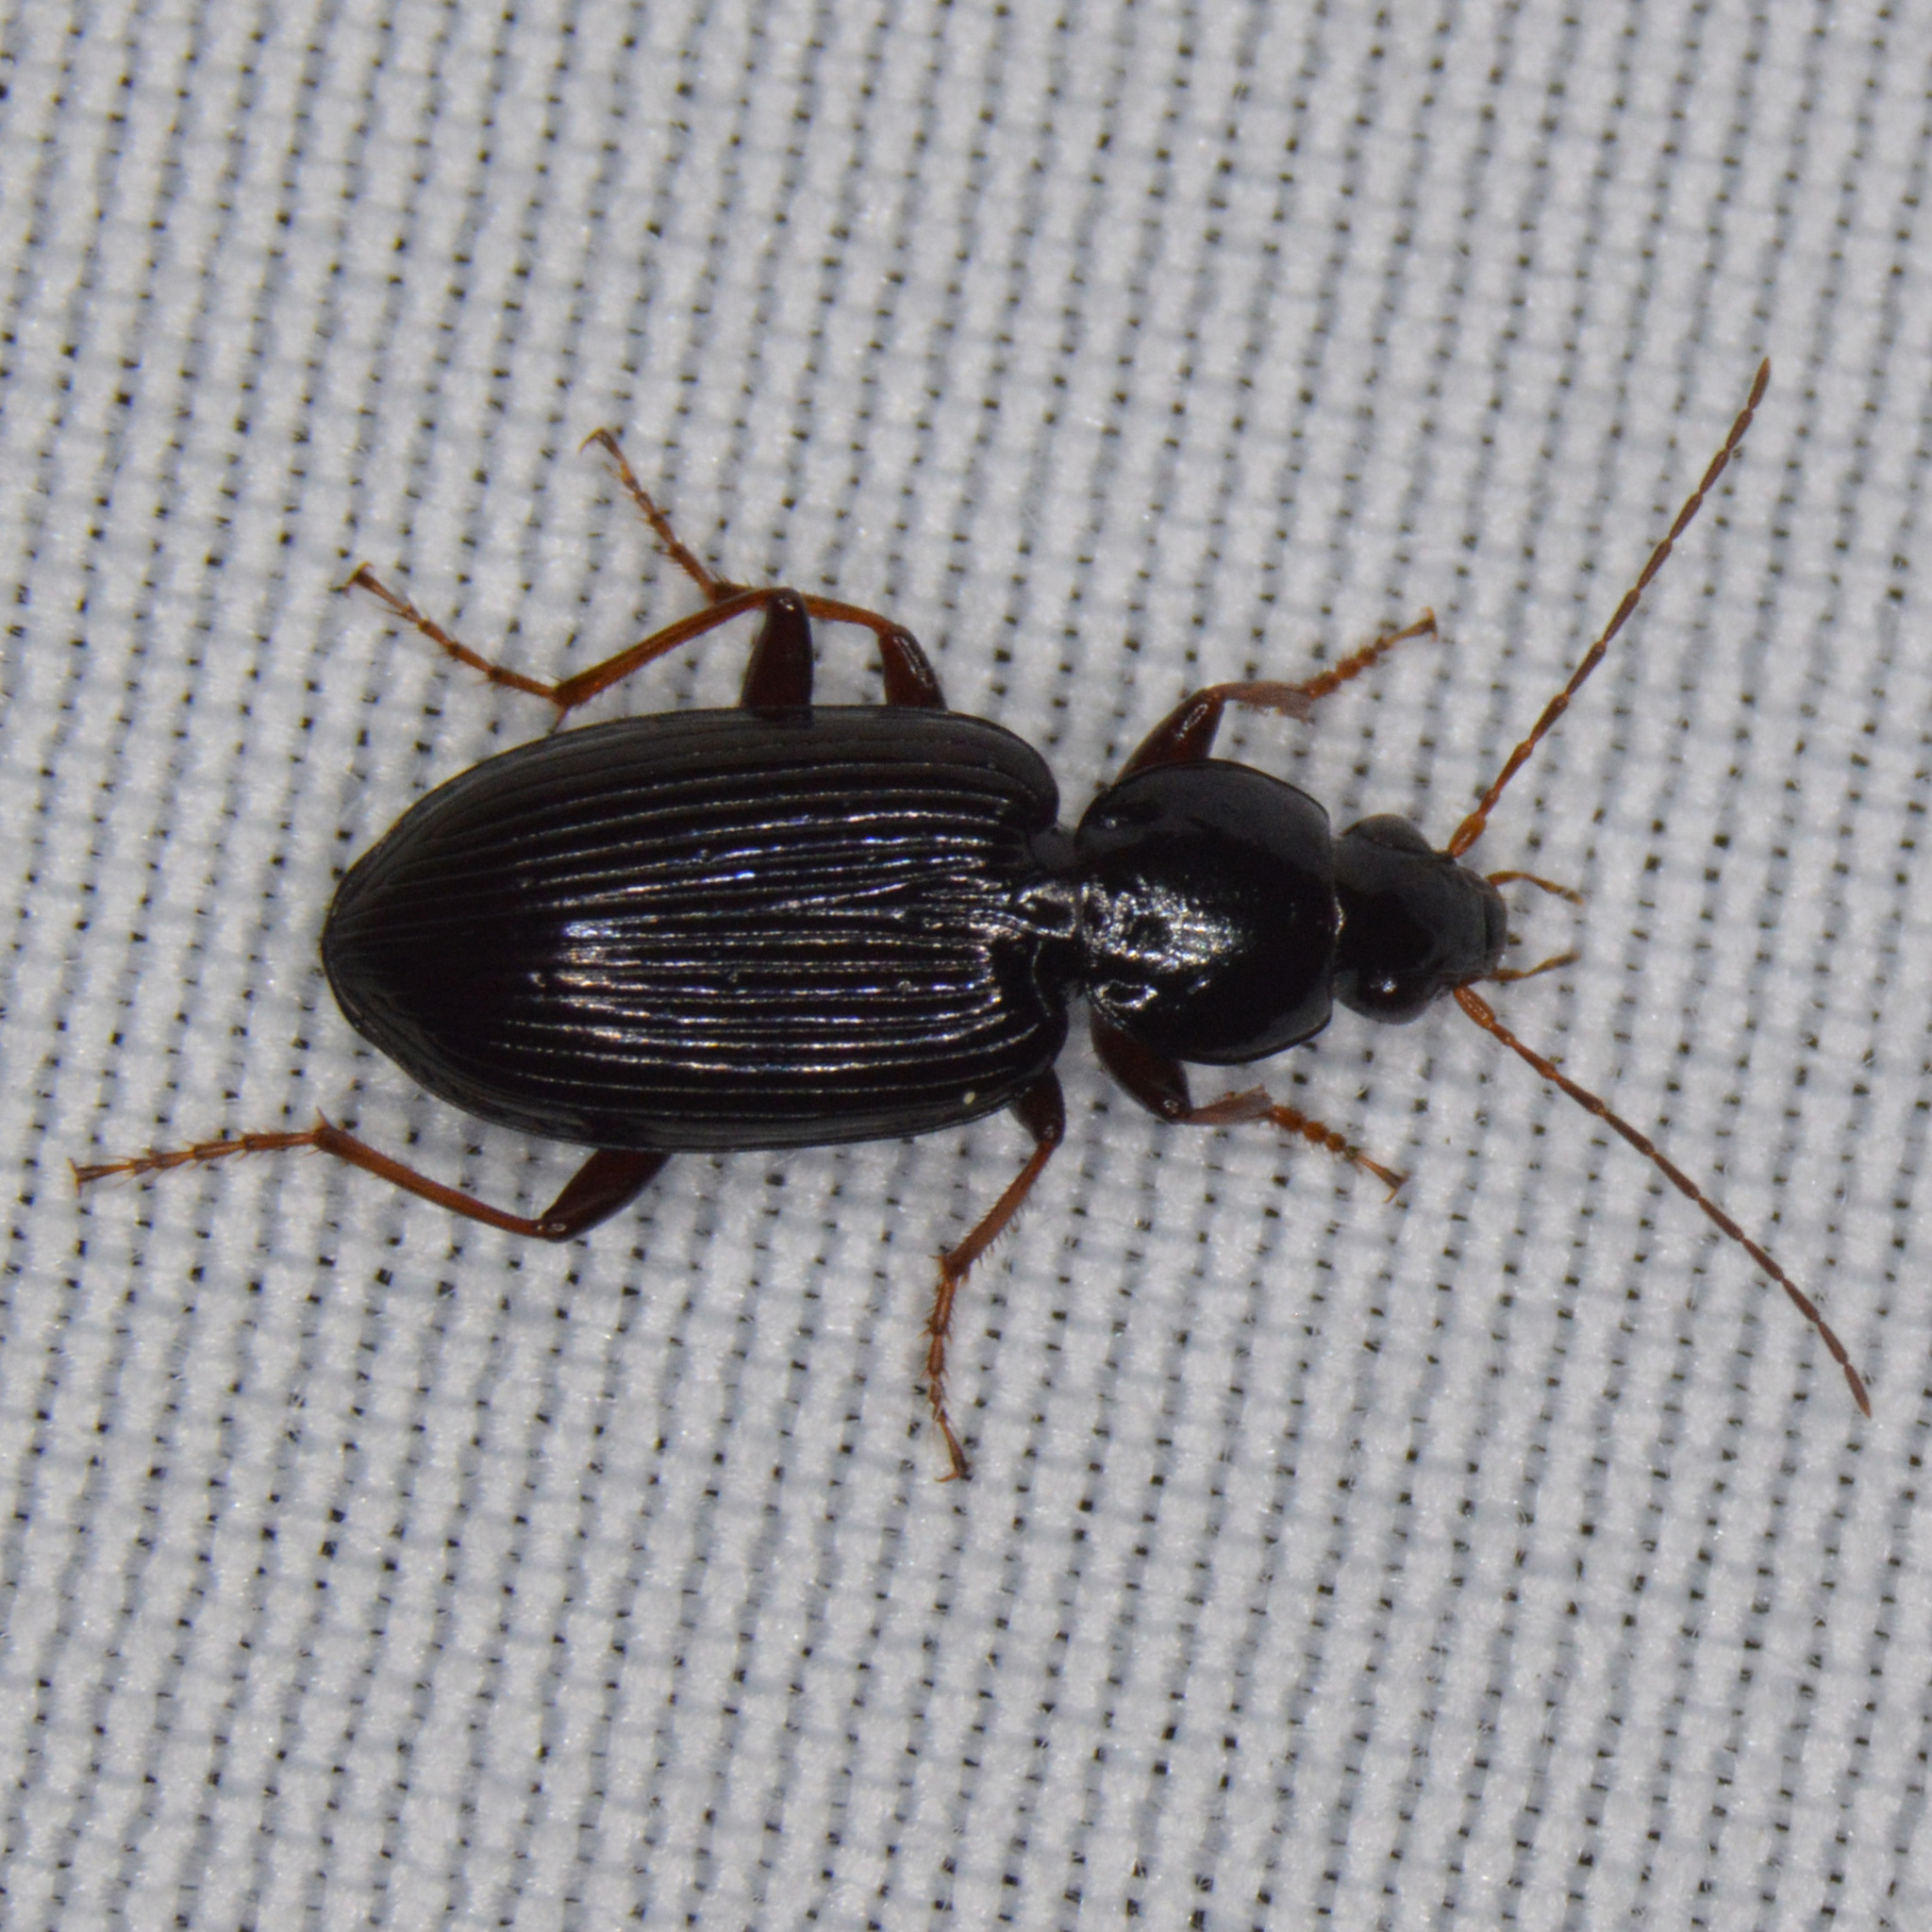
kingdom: Animalia
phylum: Arthropoda
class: Insecta
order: Coleoptera
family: Carabidae
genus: Agonum
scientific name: Agonum punctiforme
